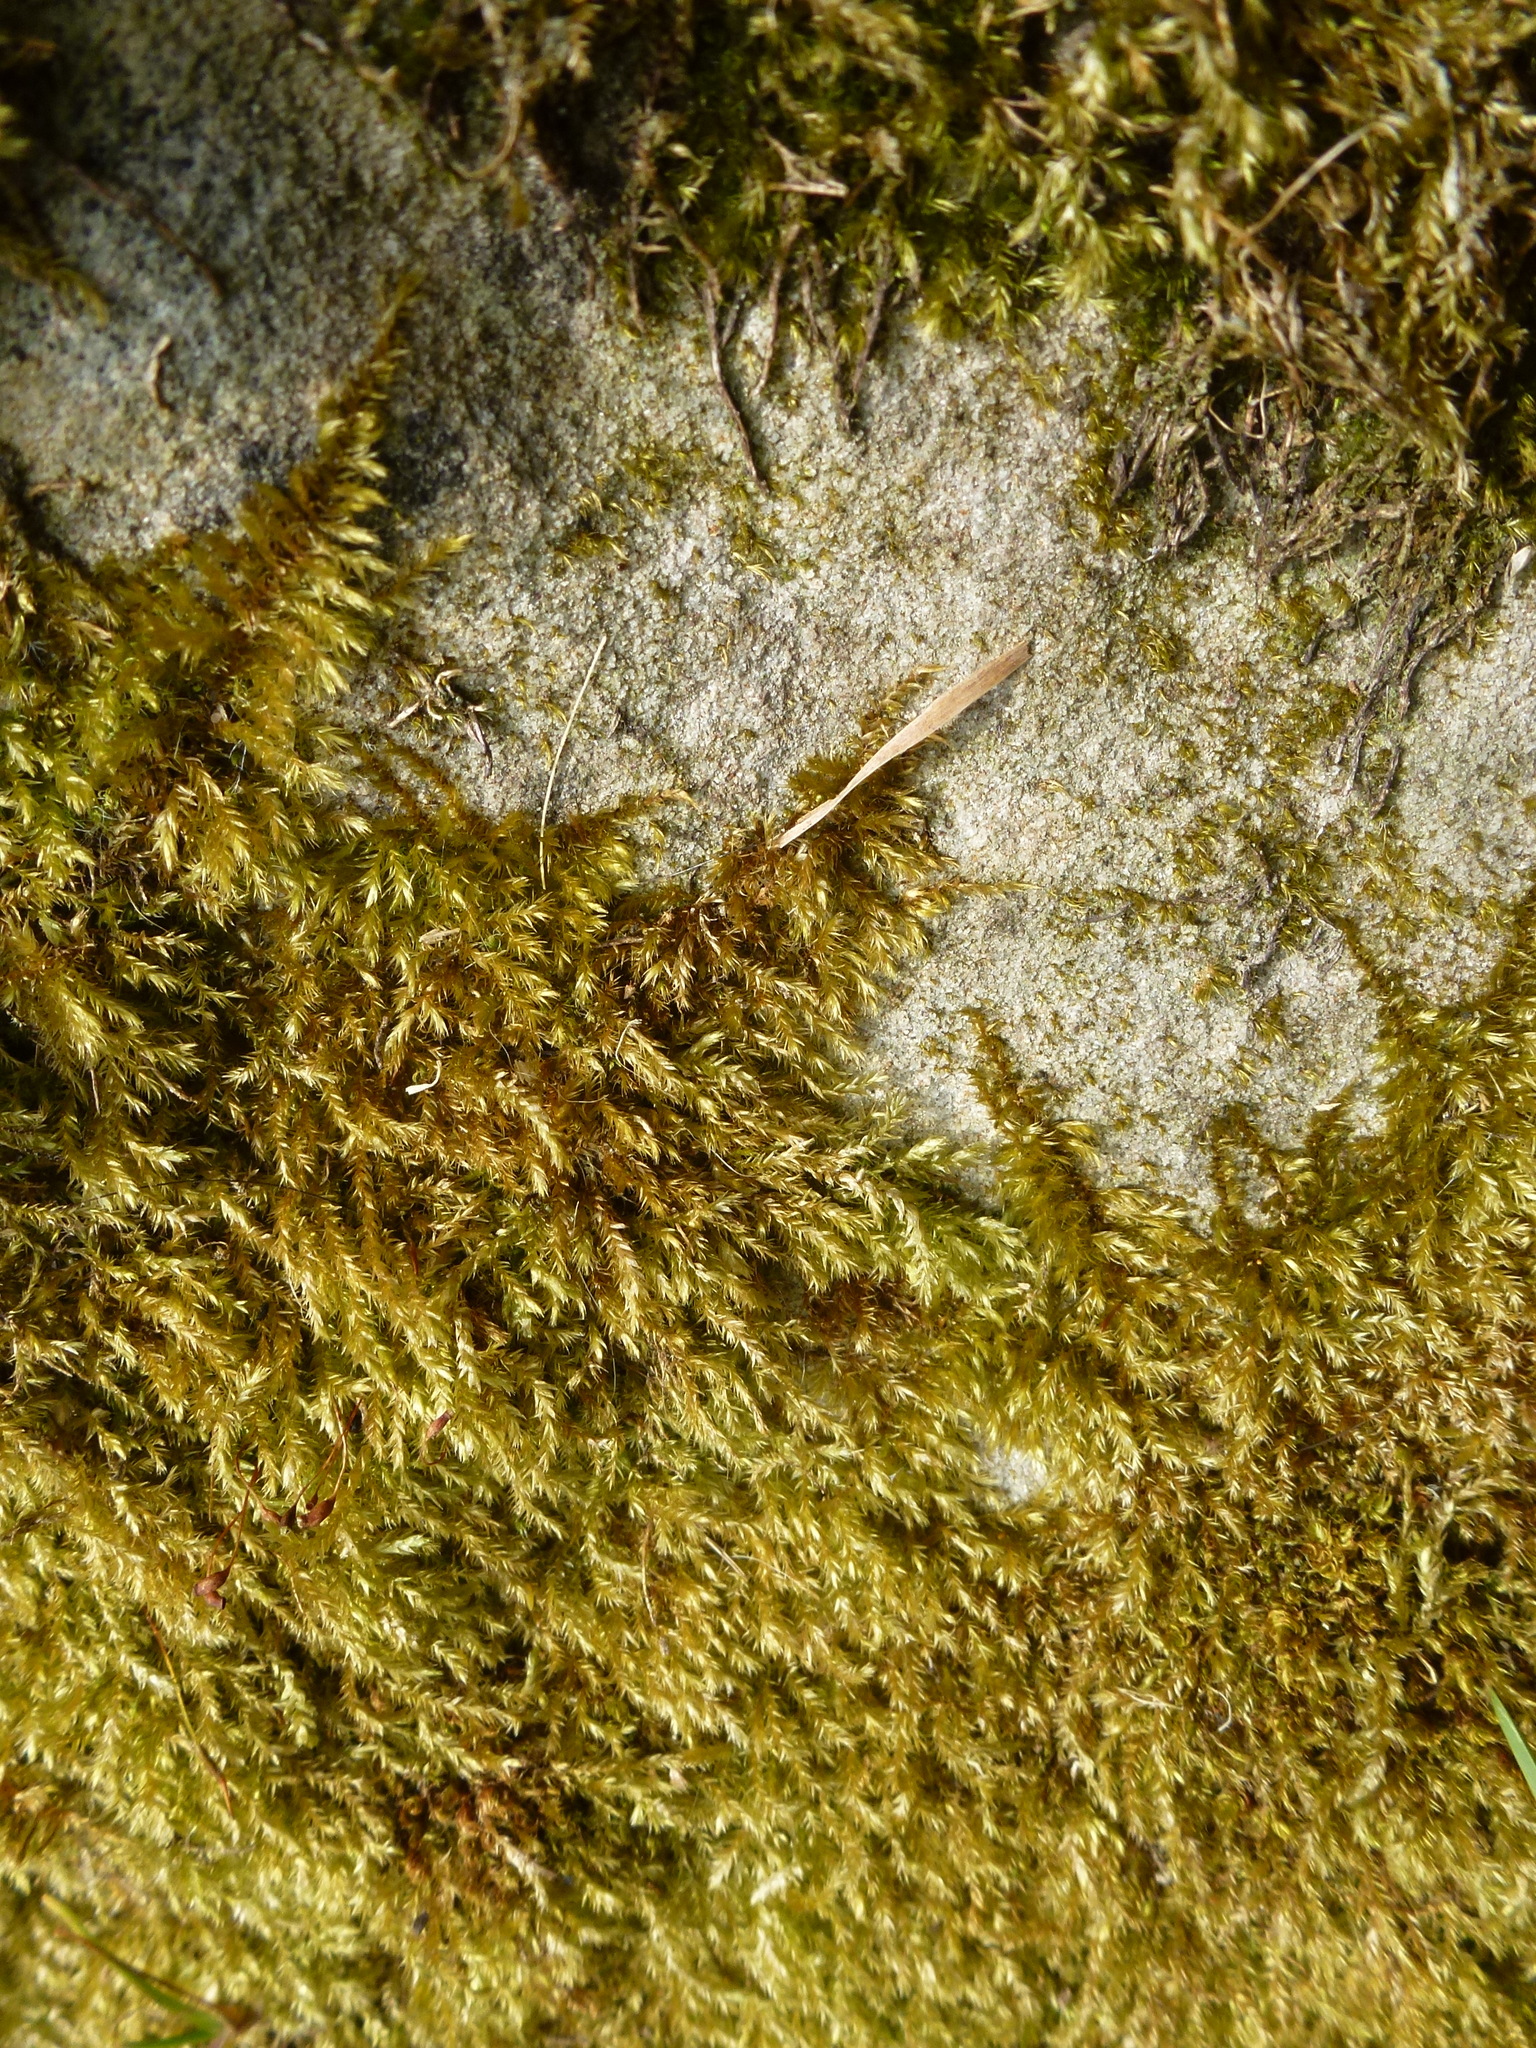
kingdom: Plantae
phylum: Bryophyta
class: Bryopsida
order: Hypnales
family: Brachytheciaceae
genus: Brachythecium
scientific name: Brachythecium rutabulum
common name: Rough-stalked feather-moss
